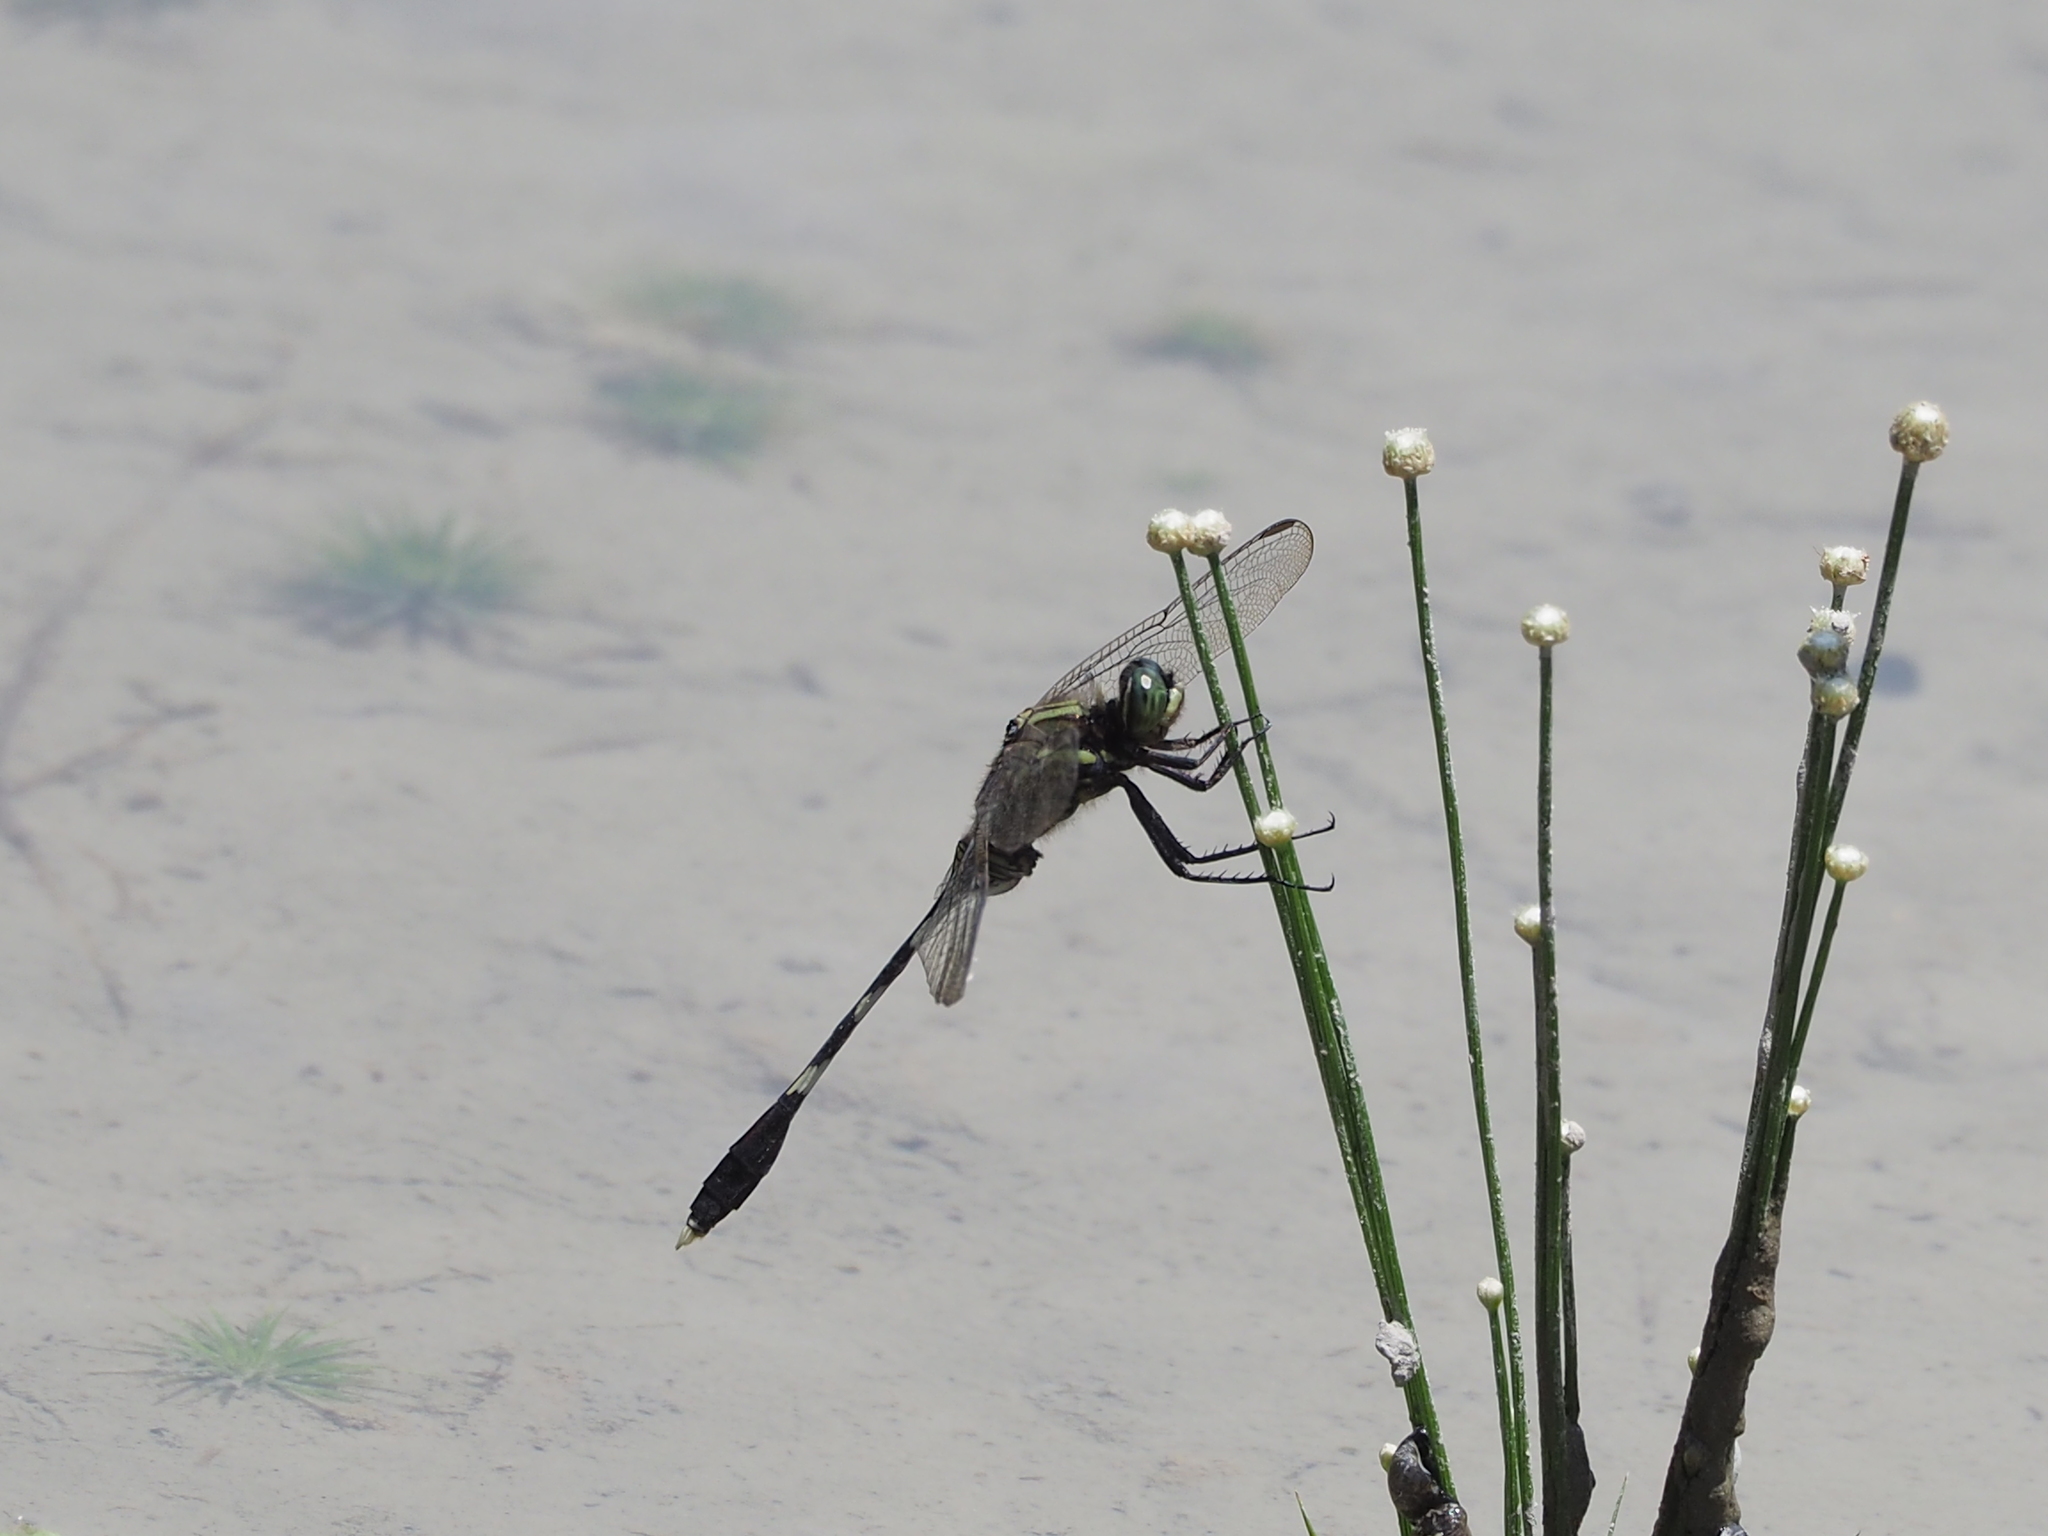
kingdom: Animalia
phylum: Arthropoda
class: Insecta
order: Odonata
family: Libellulidae
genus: Orthetrum
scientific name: Orthetrum sabina
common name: Slender skimmer
